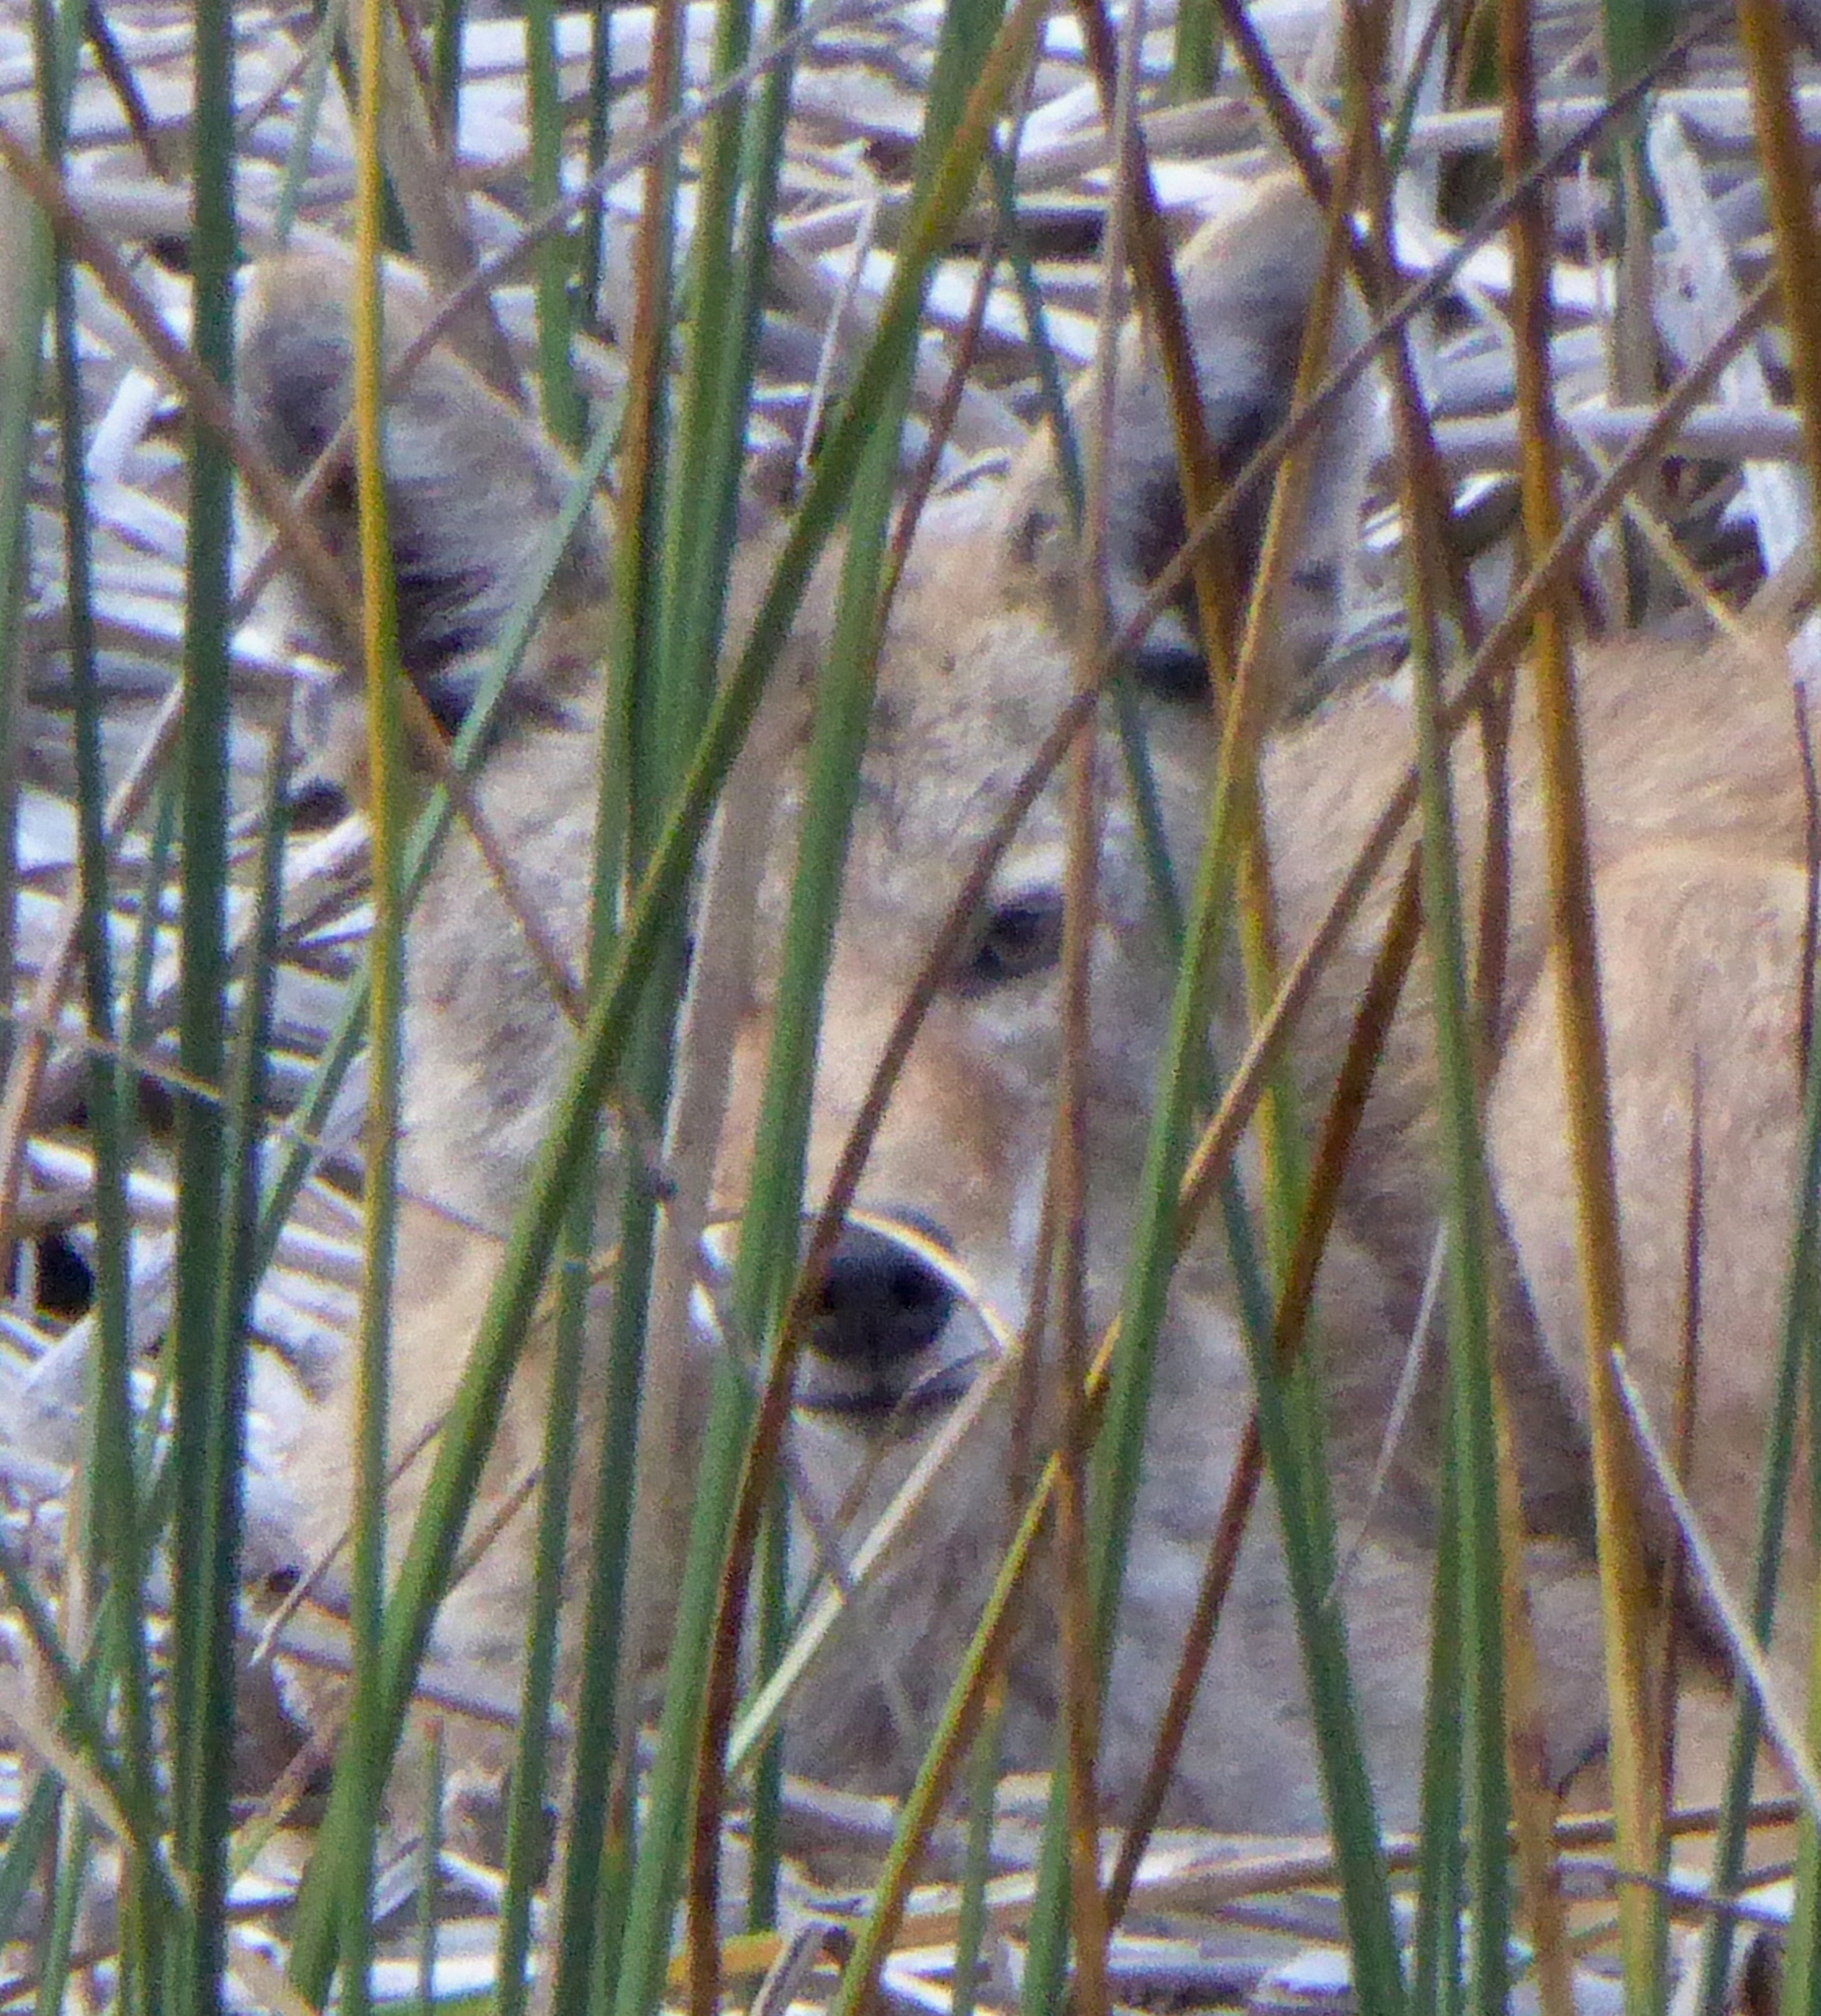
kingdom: Animalia
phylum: Chordata
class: Mammalia
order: Carnivora
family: Canidae
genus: Canis
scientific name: Canis latrans
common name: Coyote
